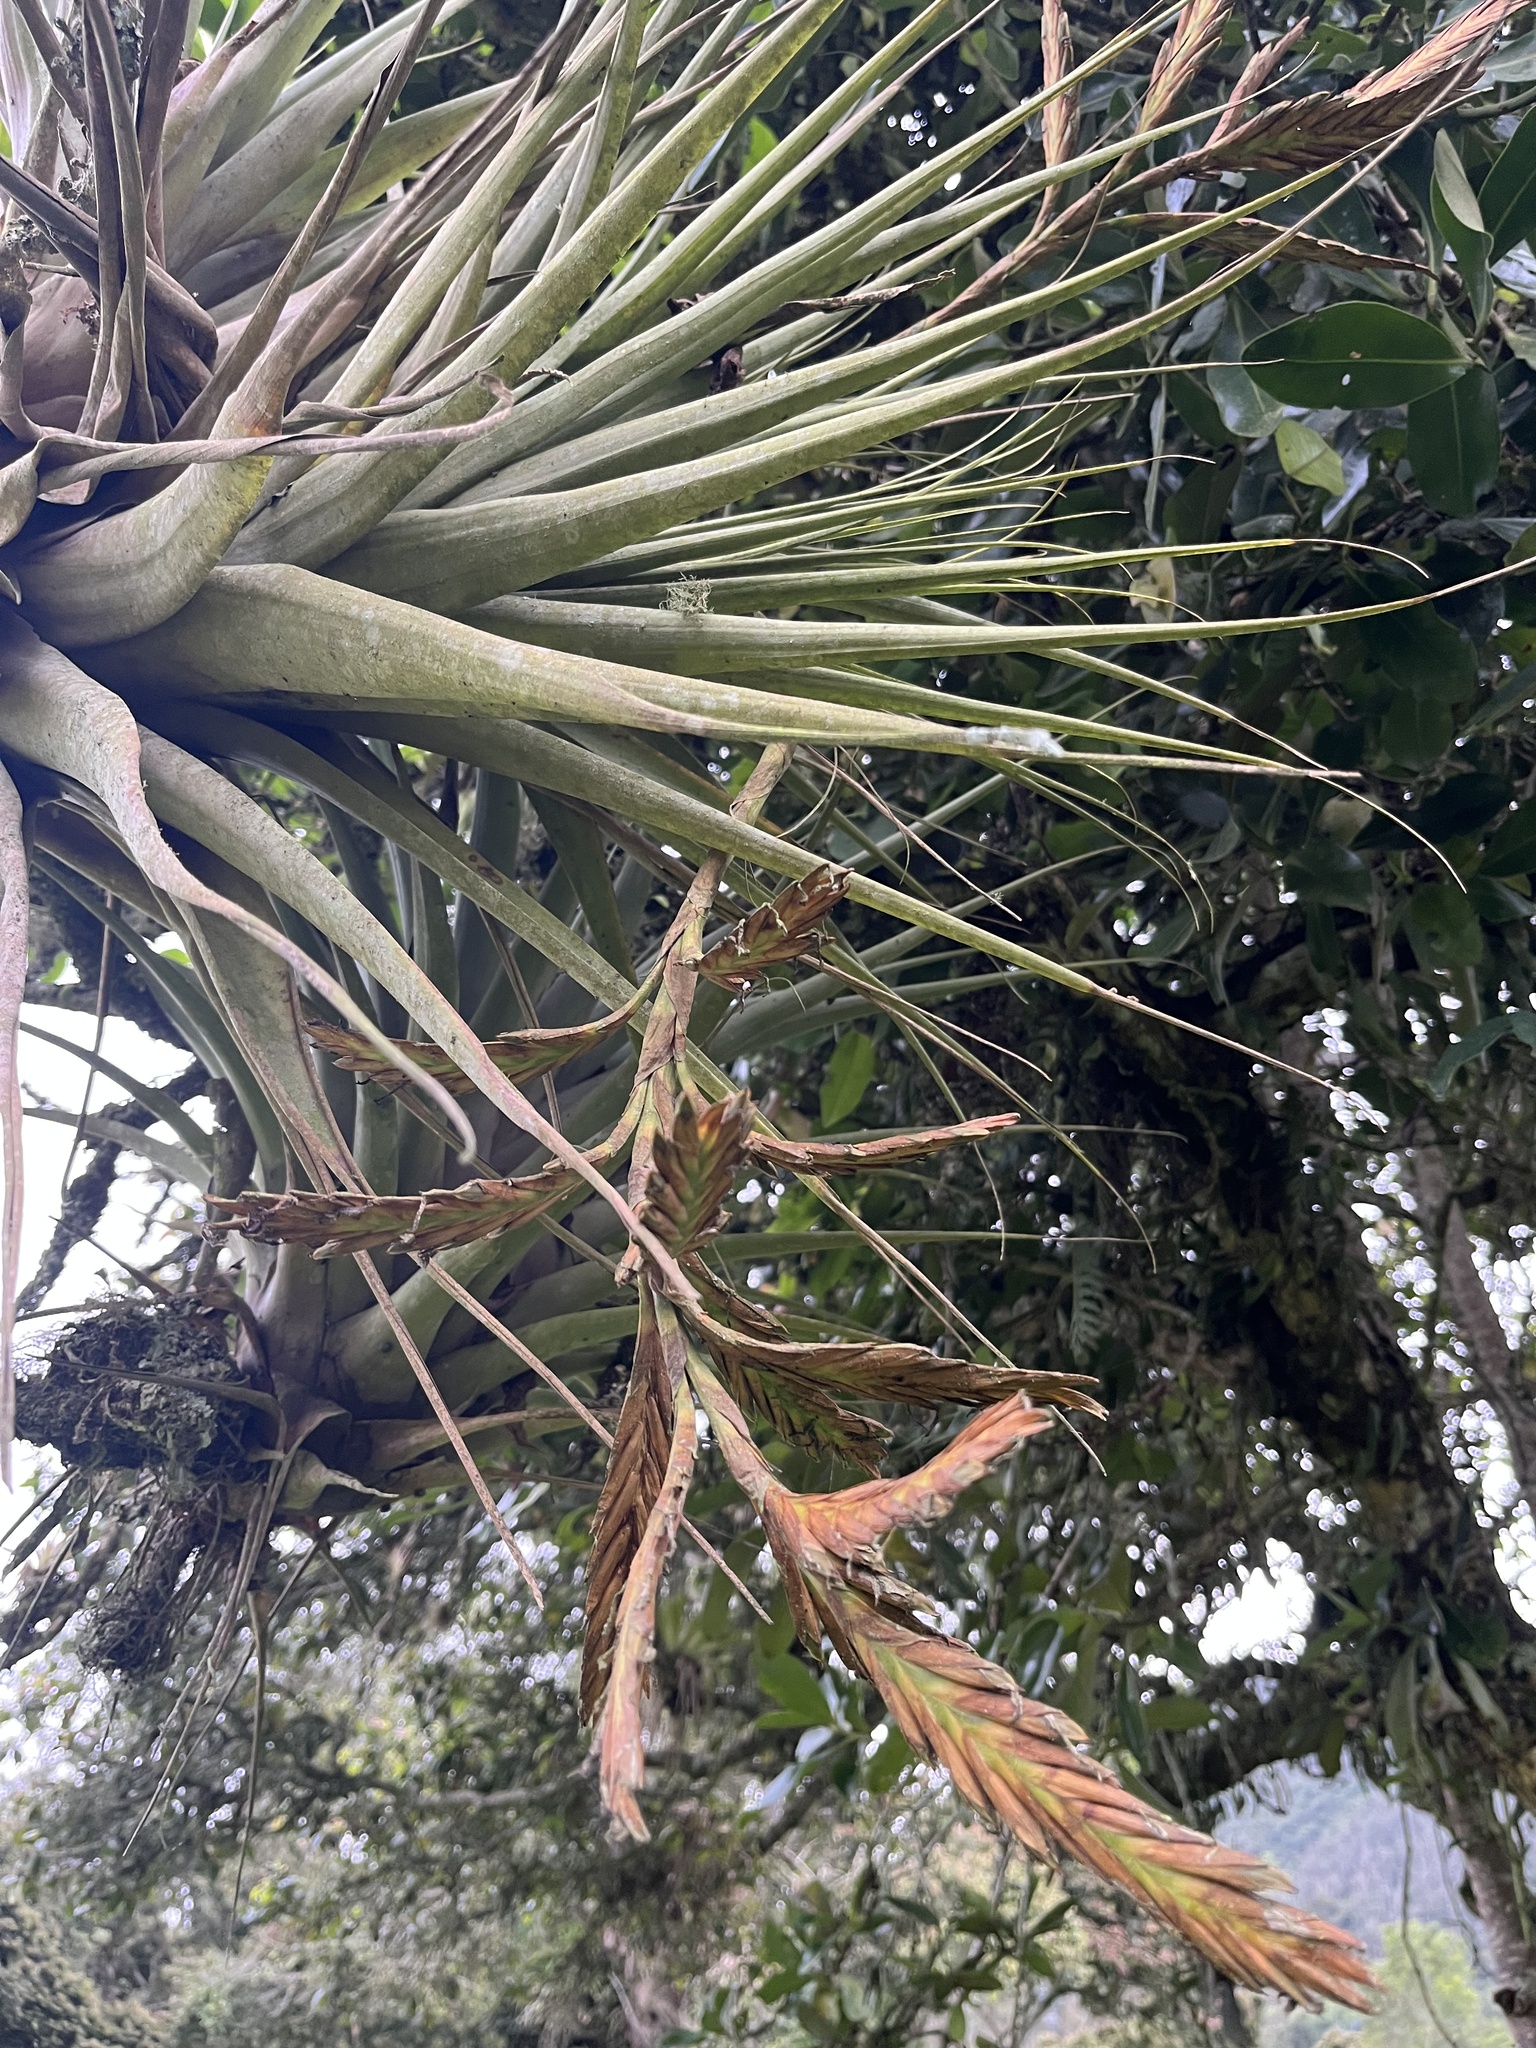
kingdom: Plantae
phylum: Tracheophyta
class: Liliopsida
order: Poales
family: Bromeliaceae
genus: Tillandsia
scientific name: Tillandsia heterandra
